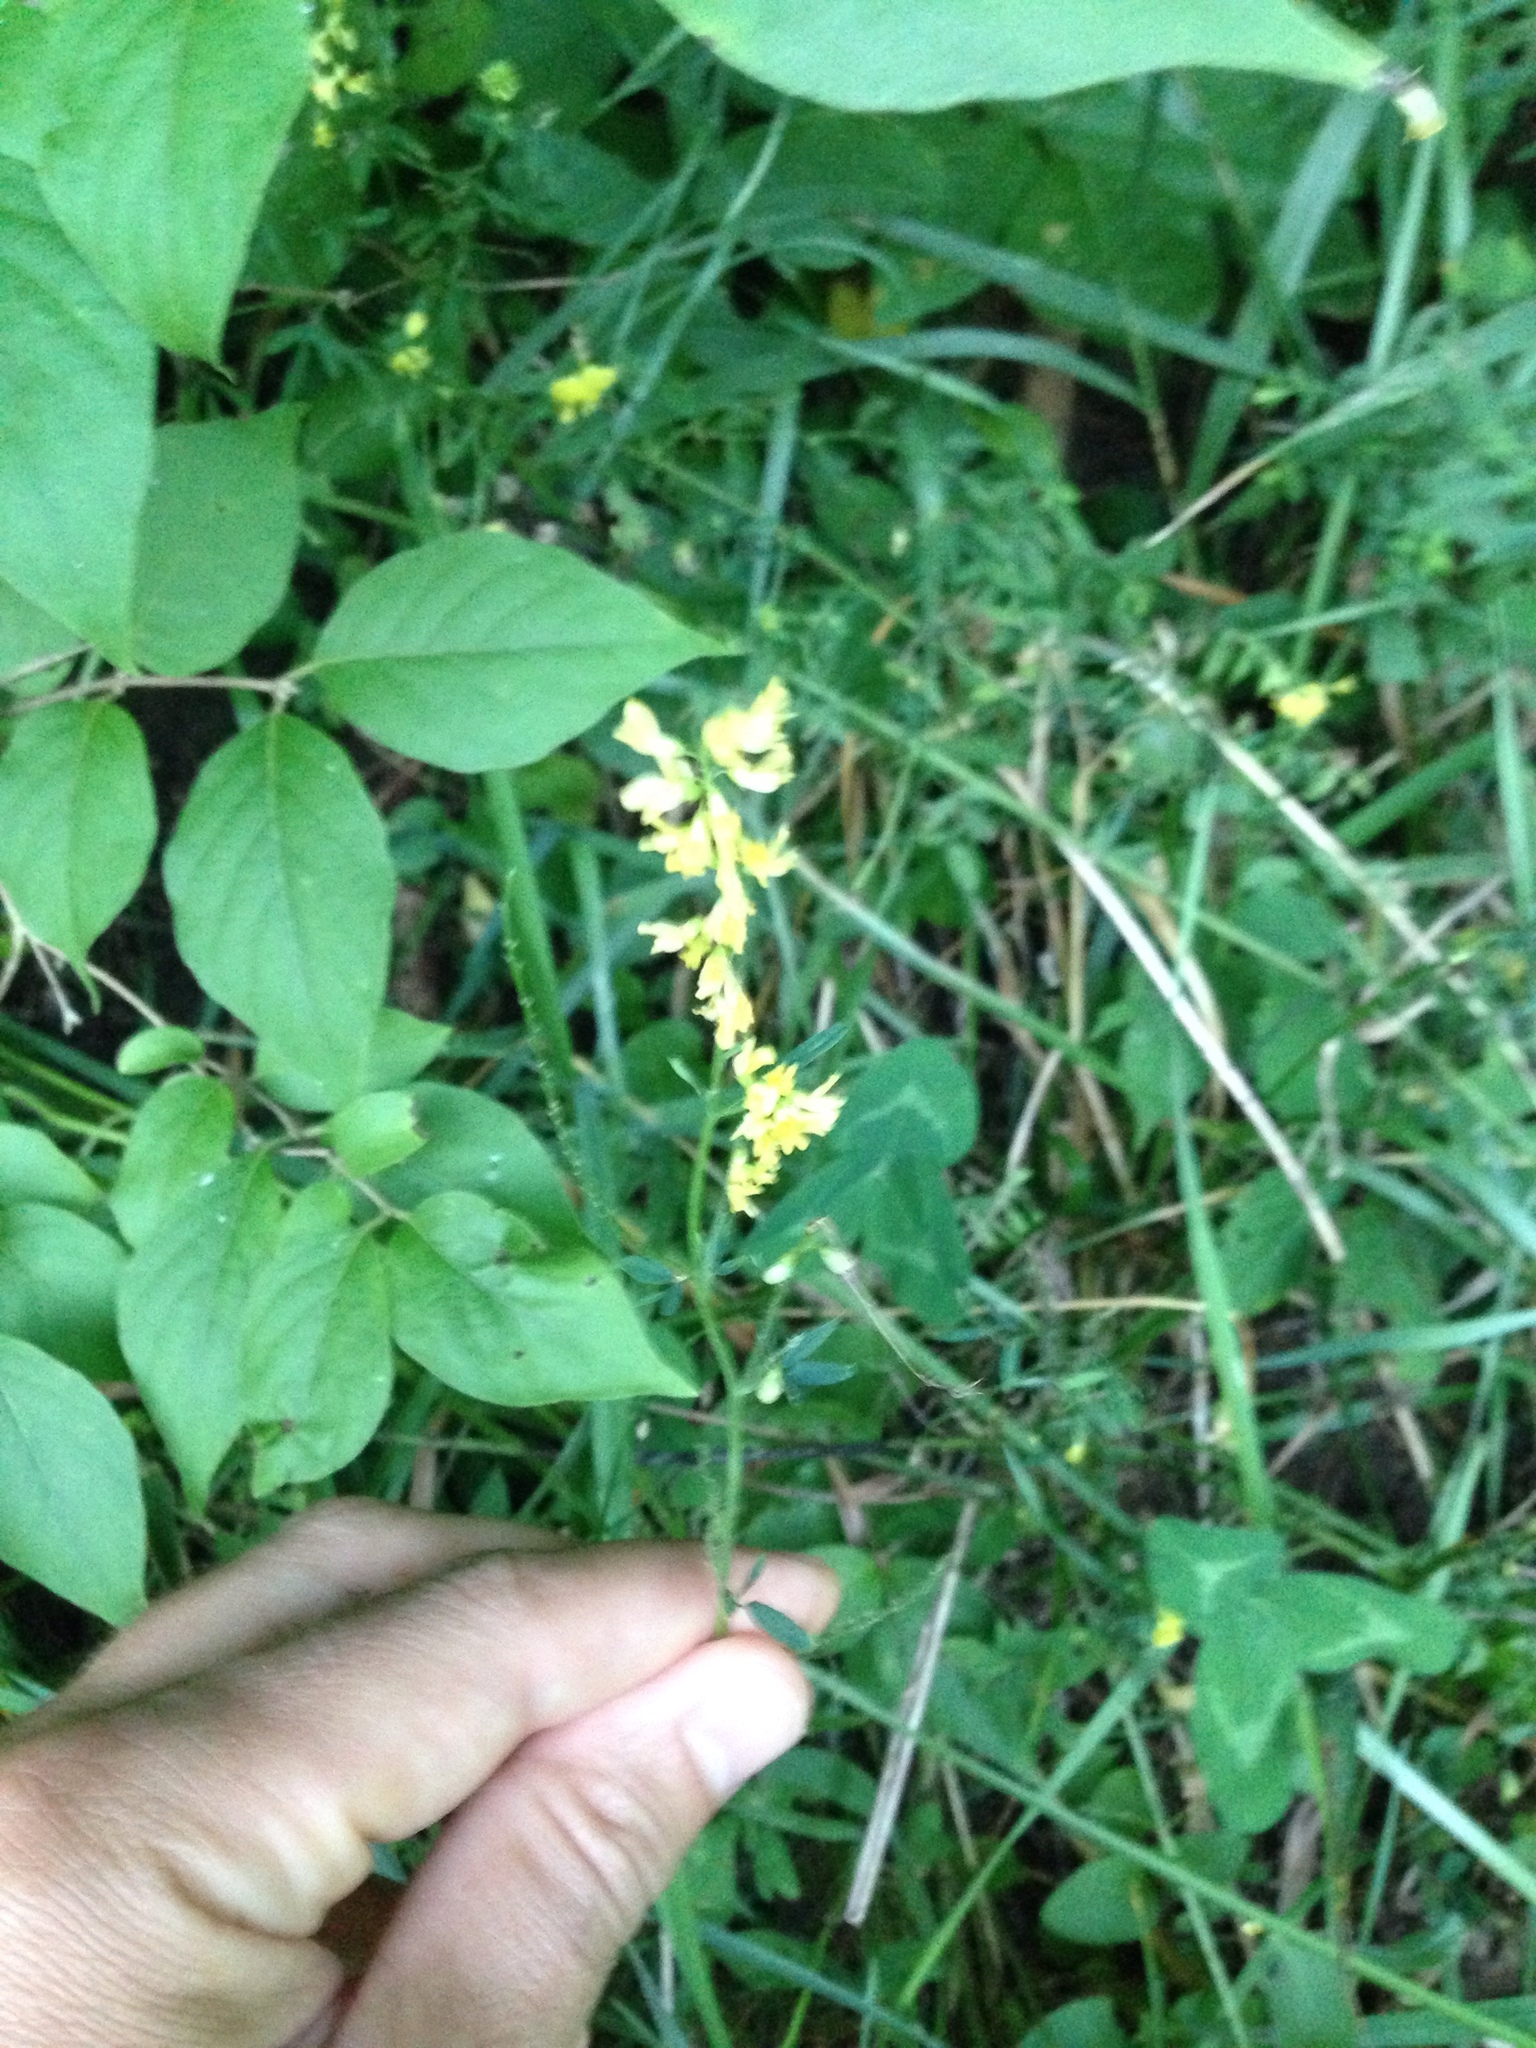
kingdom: Plantae
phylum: Tracheophyta
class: Magnoliopsida
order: Fabales
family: Fabaceae
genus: Melilotus
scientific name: Melilotus officinalis
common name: Sweetclover
